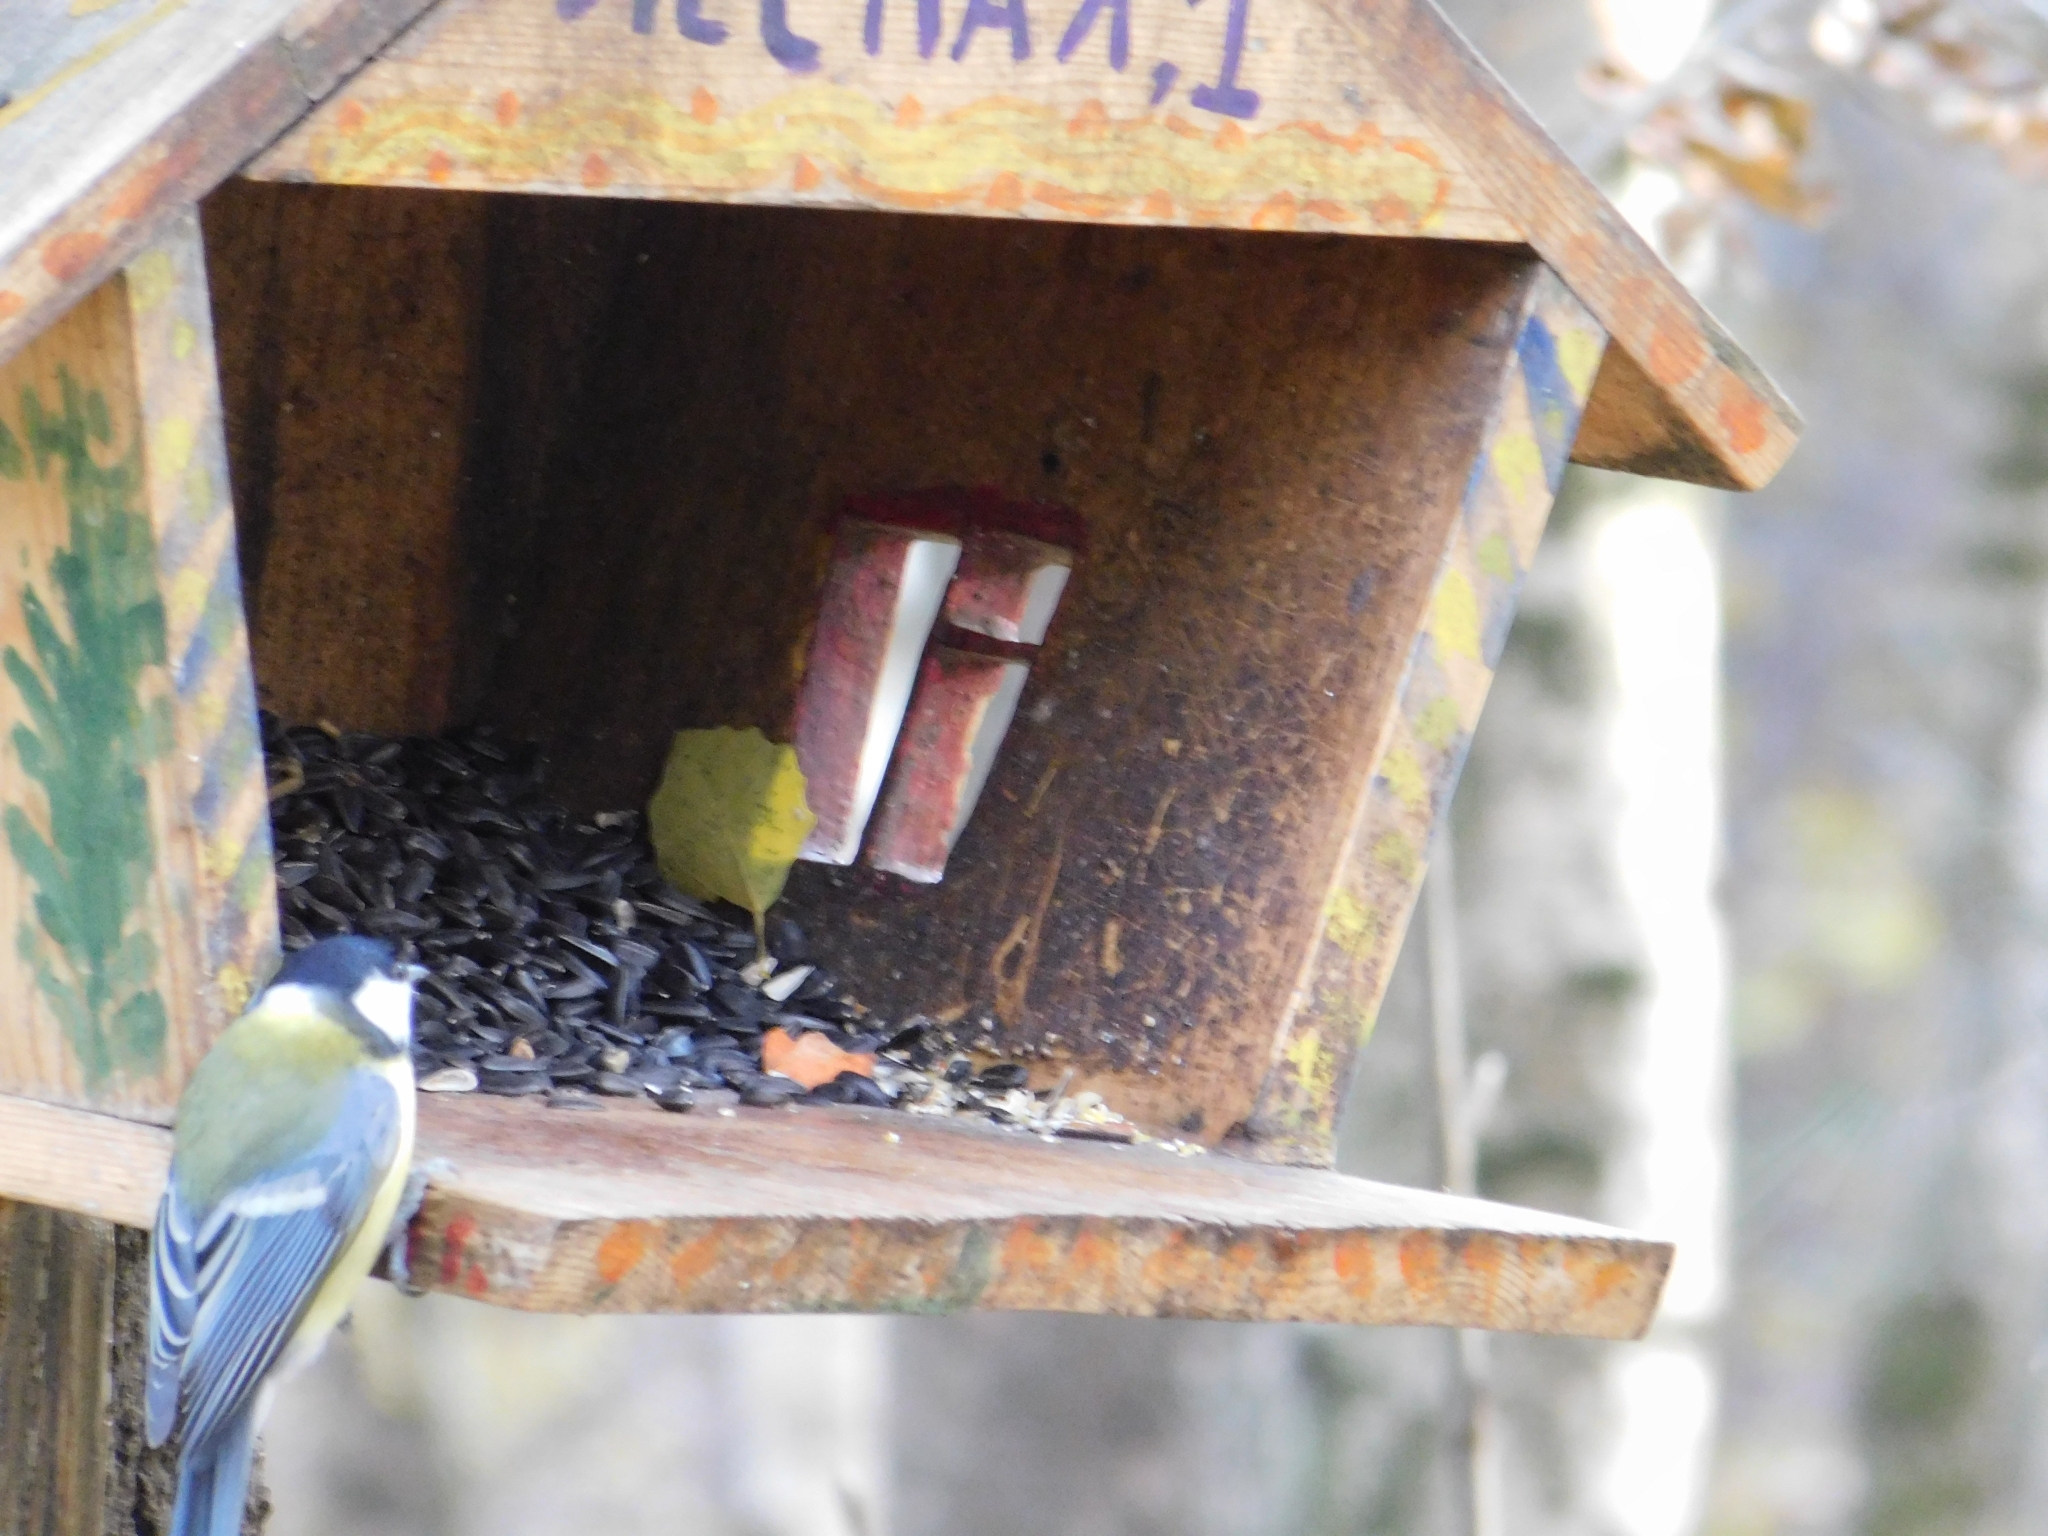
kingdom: Animalia
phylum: Chordata
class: Aves
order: Passeriformes
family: Paridae
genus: Parus
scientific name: Parus major
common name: Great tit
